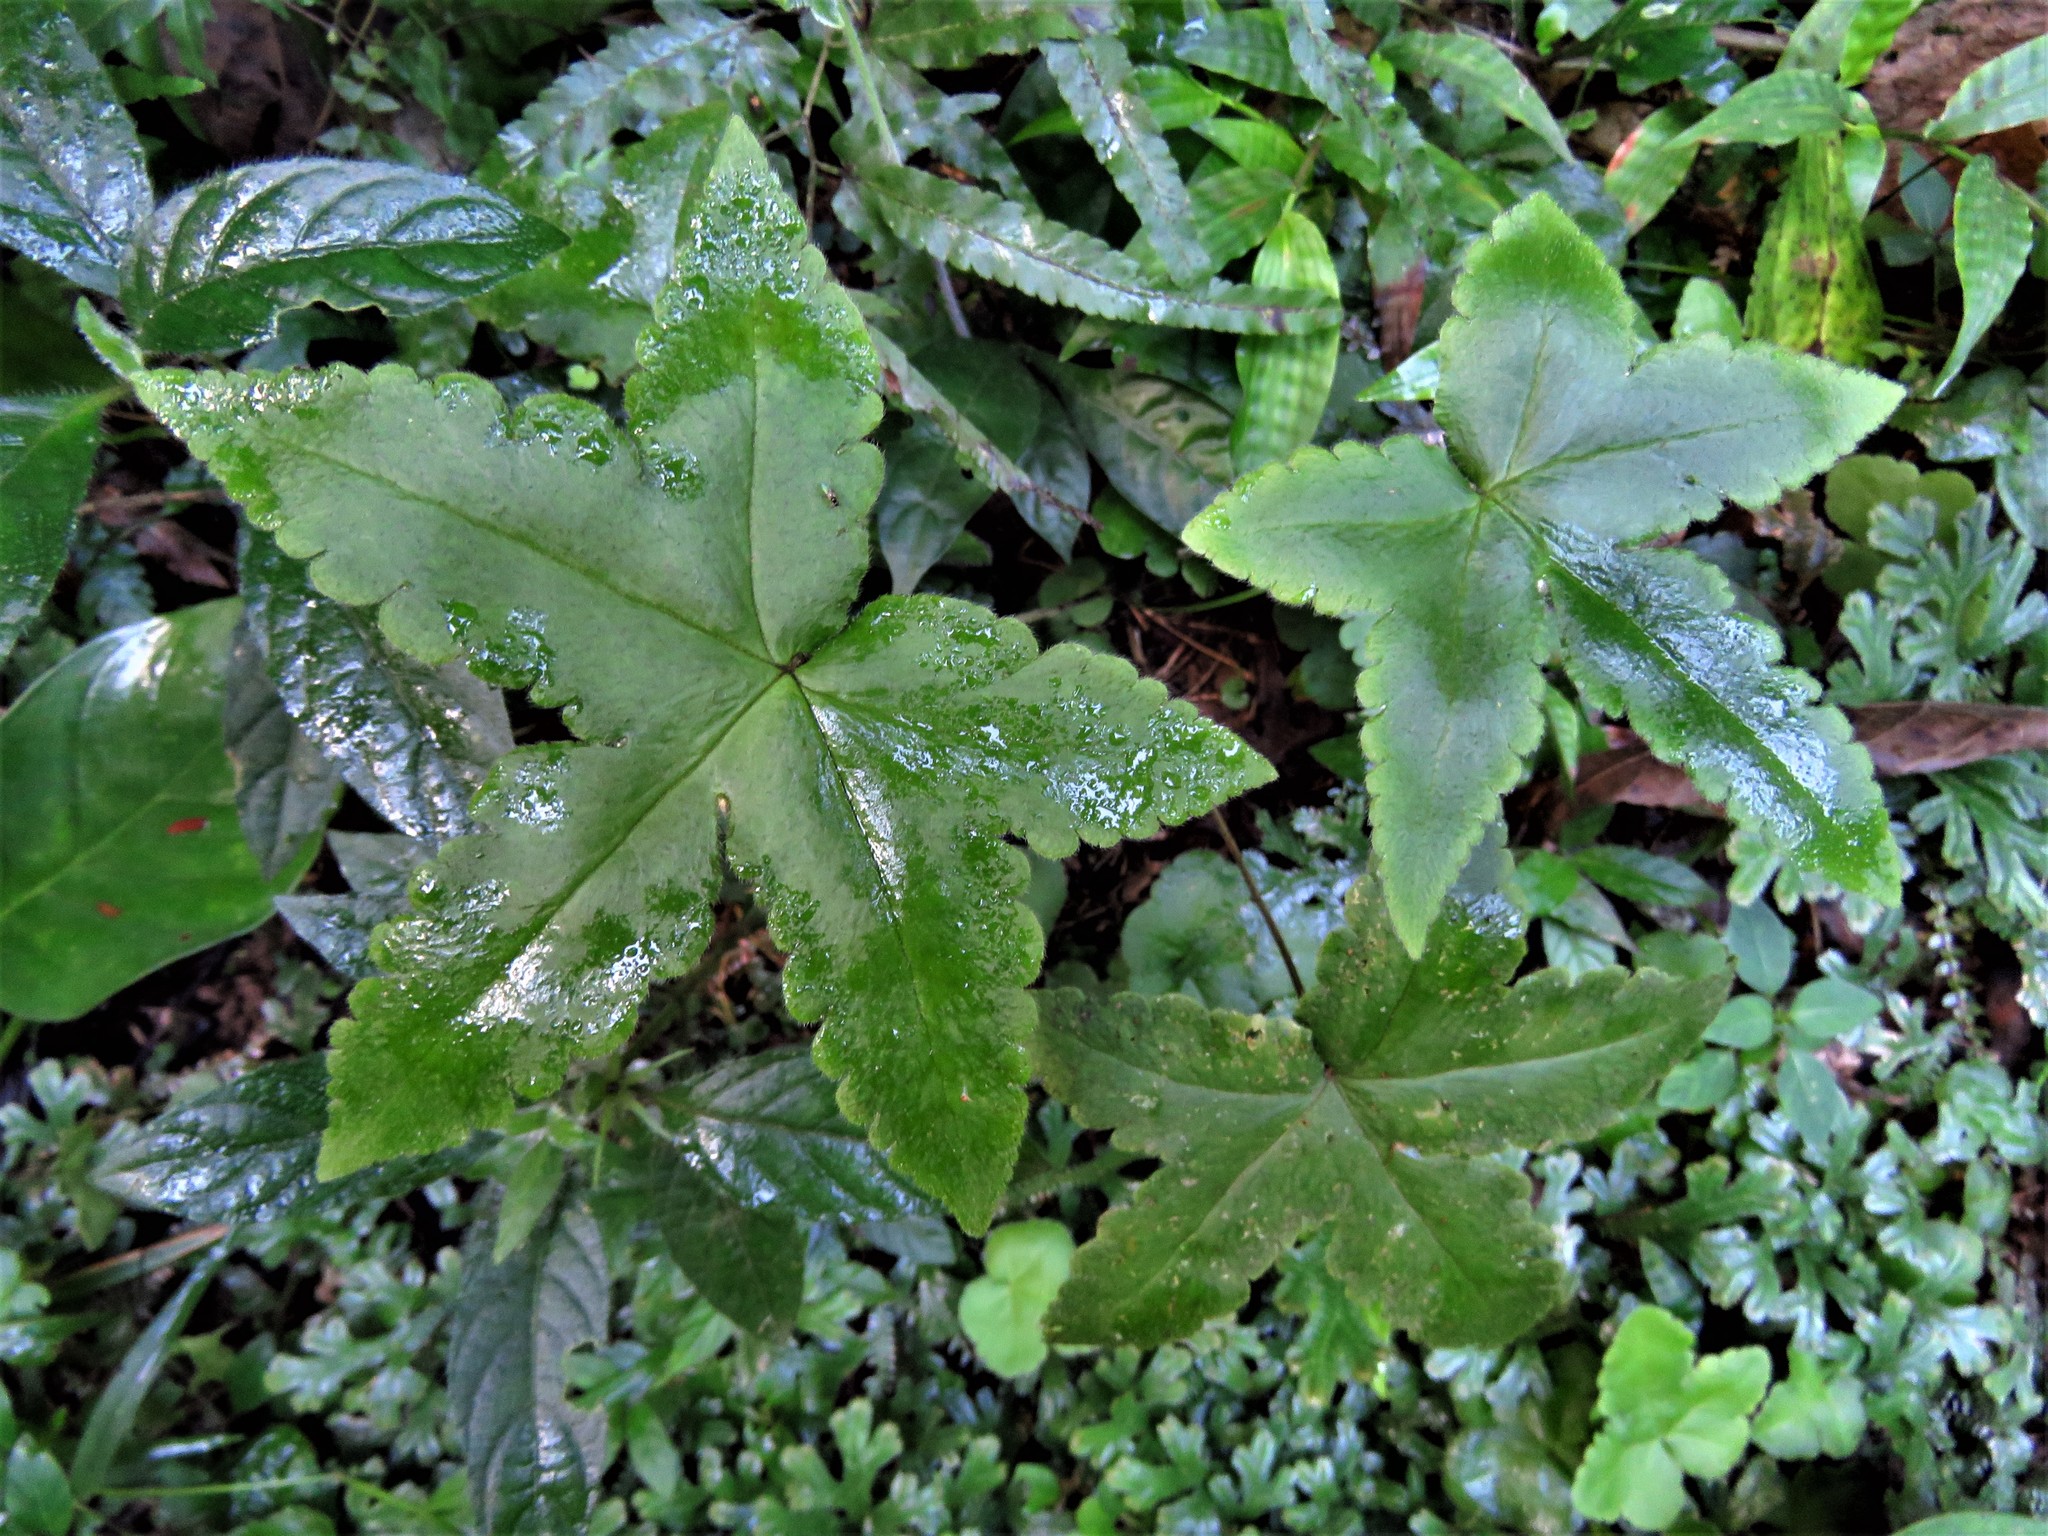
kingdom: Plantae
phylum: Tracheophyta
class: Polypodiopsida
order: Polypodiales
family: Pteridaceae
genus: Hemionitis
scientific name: Hemionitis palmata
